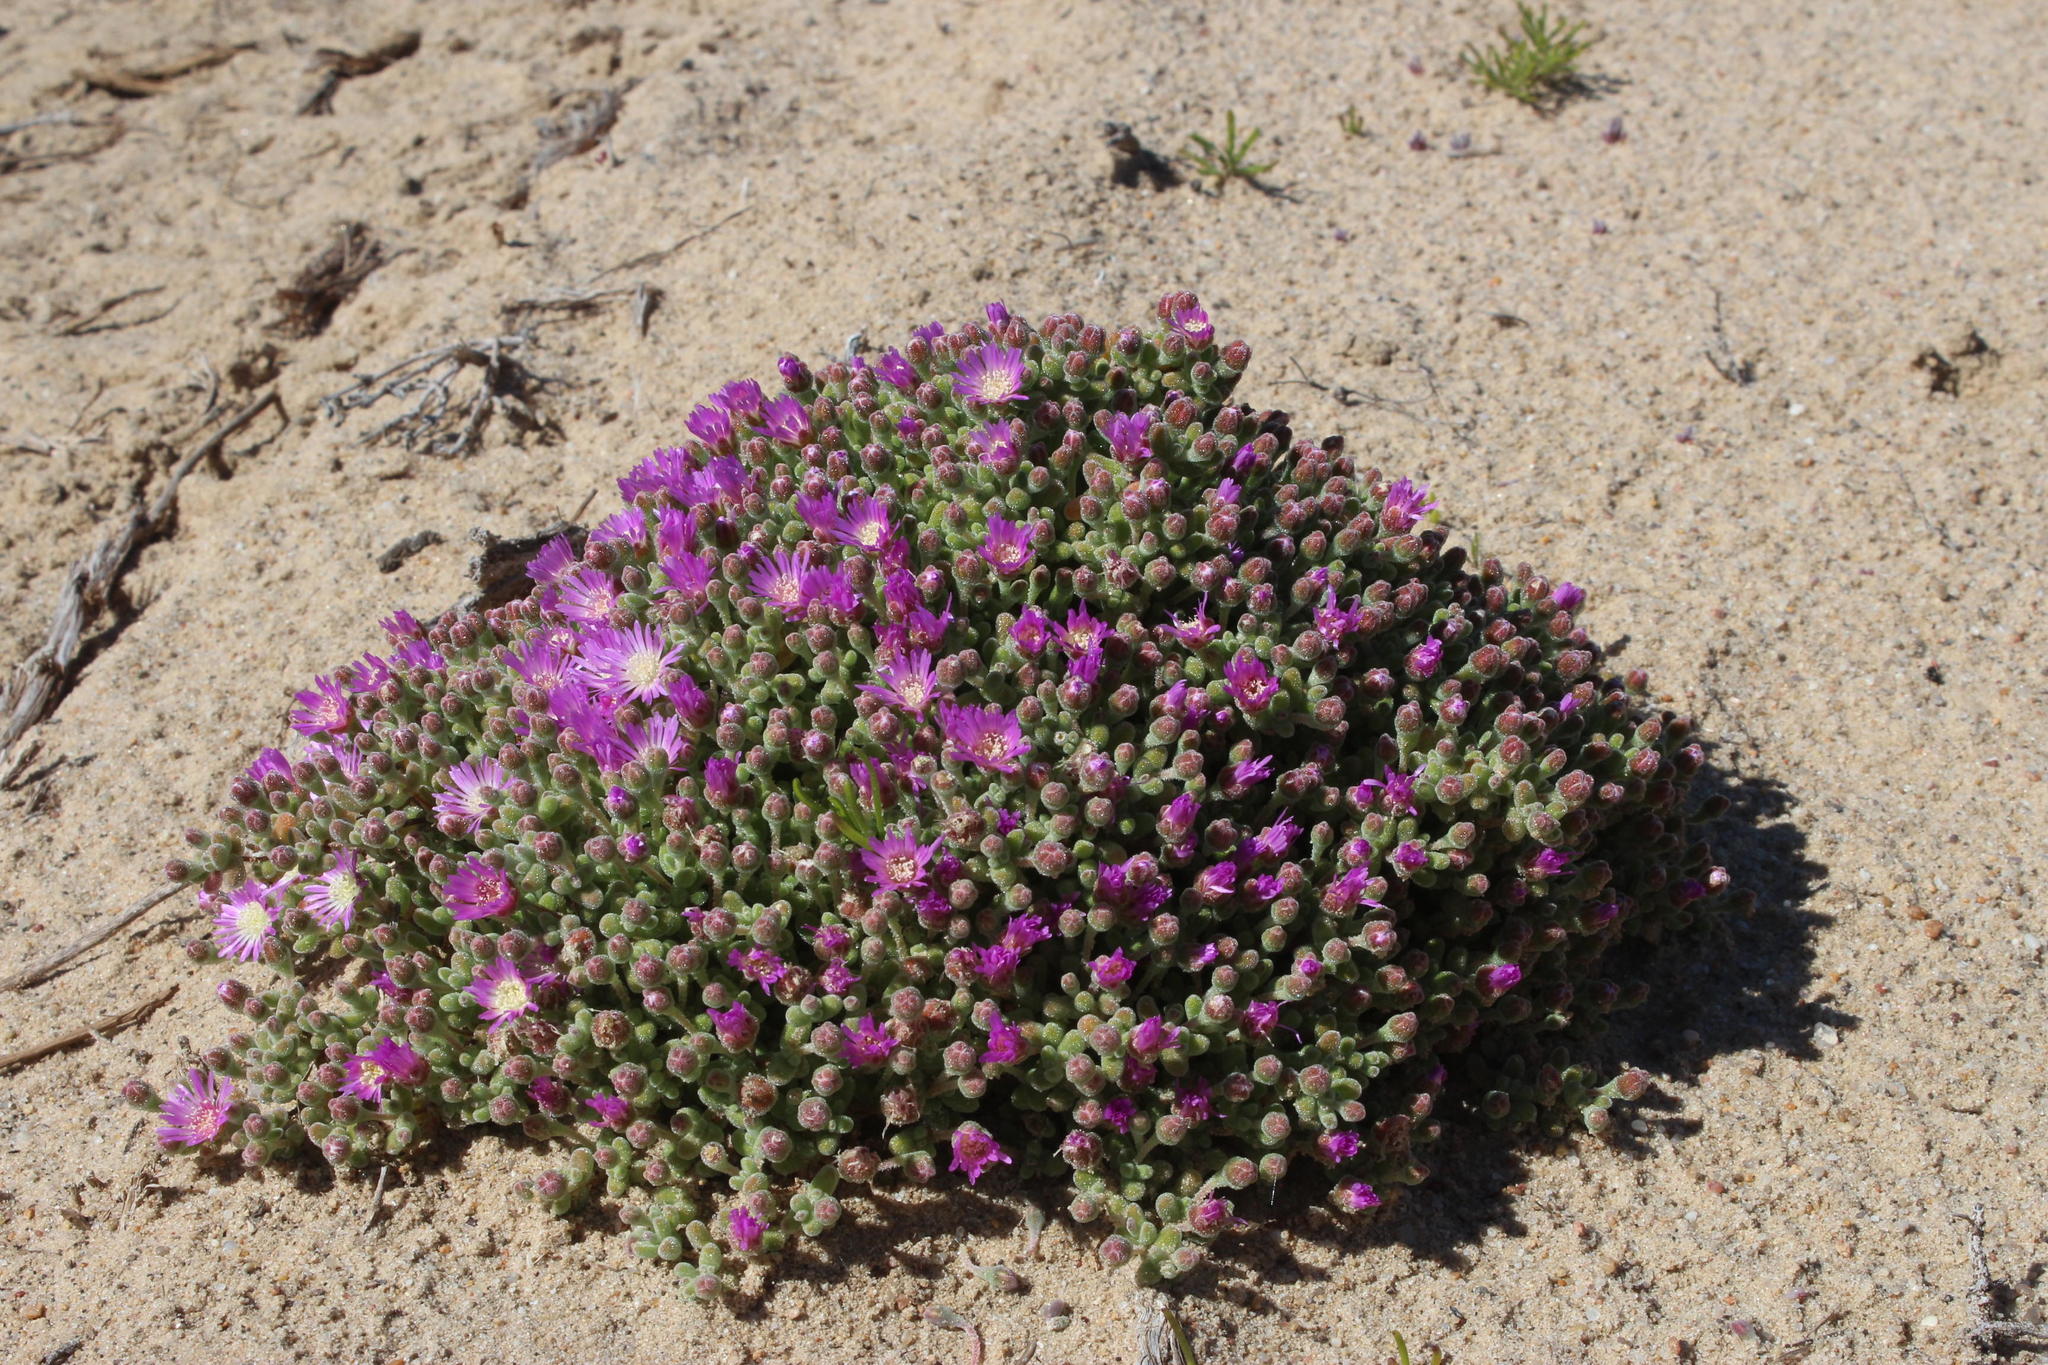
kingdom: Plantae
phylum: Tracheophyta
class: Magnoliopsida
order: Caryophyllales
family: Aizoaceae
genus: Drosanthemum
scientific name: Drosanthemum luederitzii
